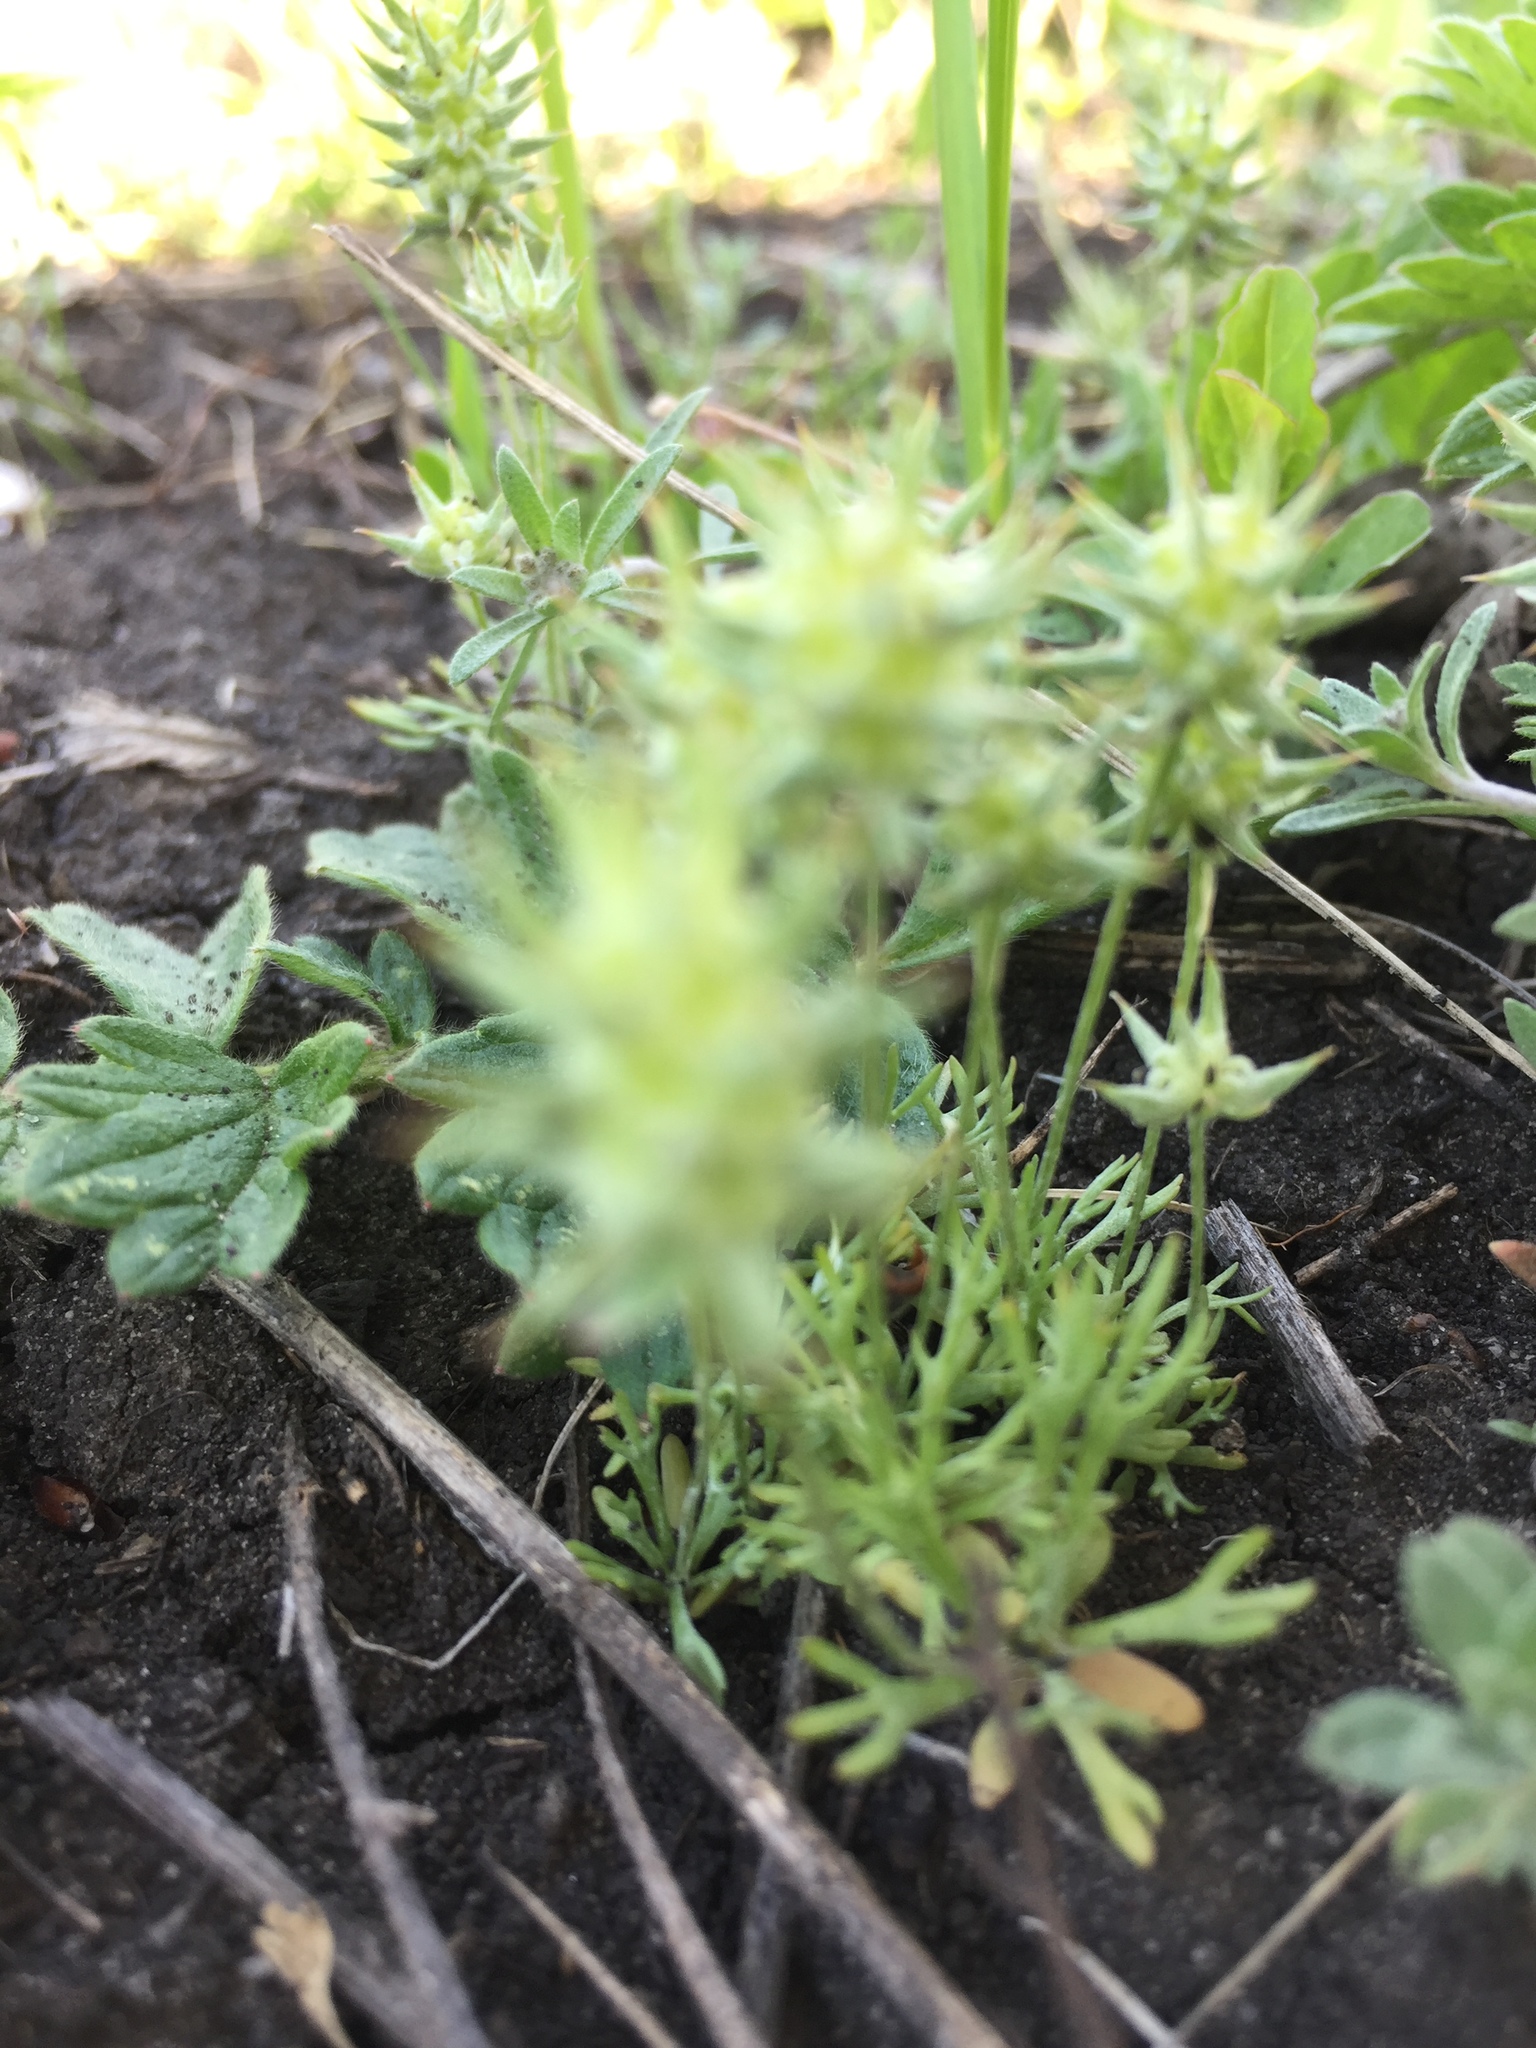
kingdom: Plantae
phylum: Tracheophyta
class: Magnoliopsida
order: Ranunculales
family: Ranunculaceae
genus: Ceratocephala
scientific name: Ceratocephala orthoceras
